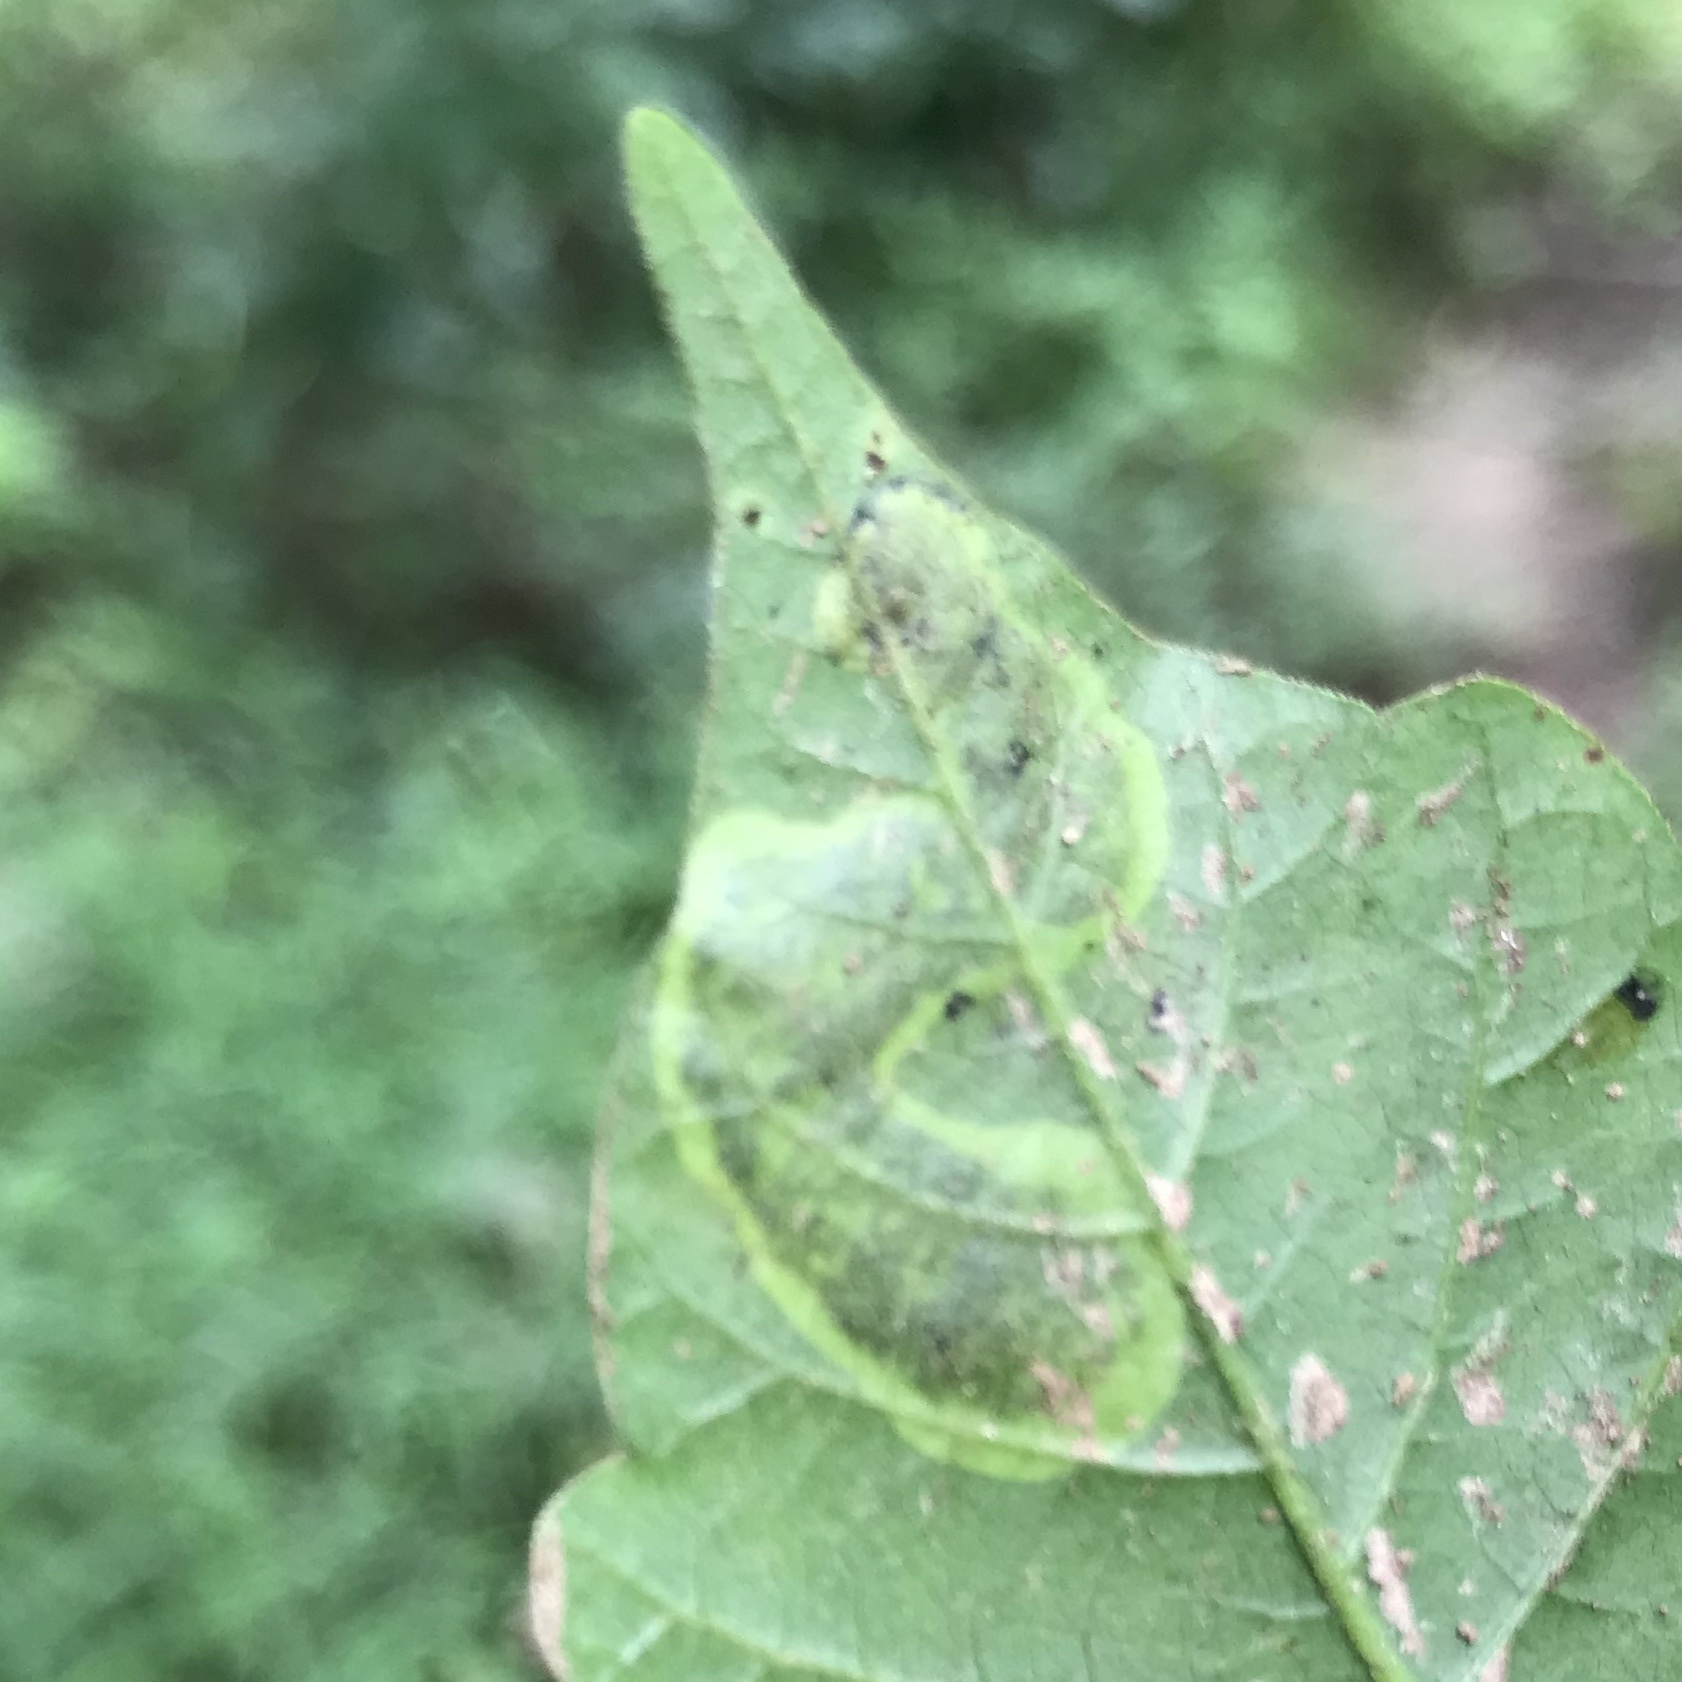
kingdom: Animalia
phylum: Arthropoda
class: Insecta
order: Lepidoptera
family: Gracillariidae
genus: Cameraria
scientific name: Cameraria guttifinitella
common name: Poison ivy leaf-miner moth
